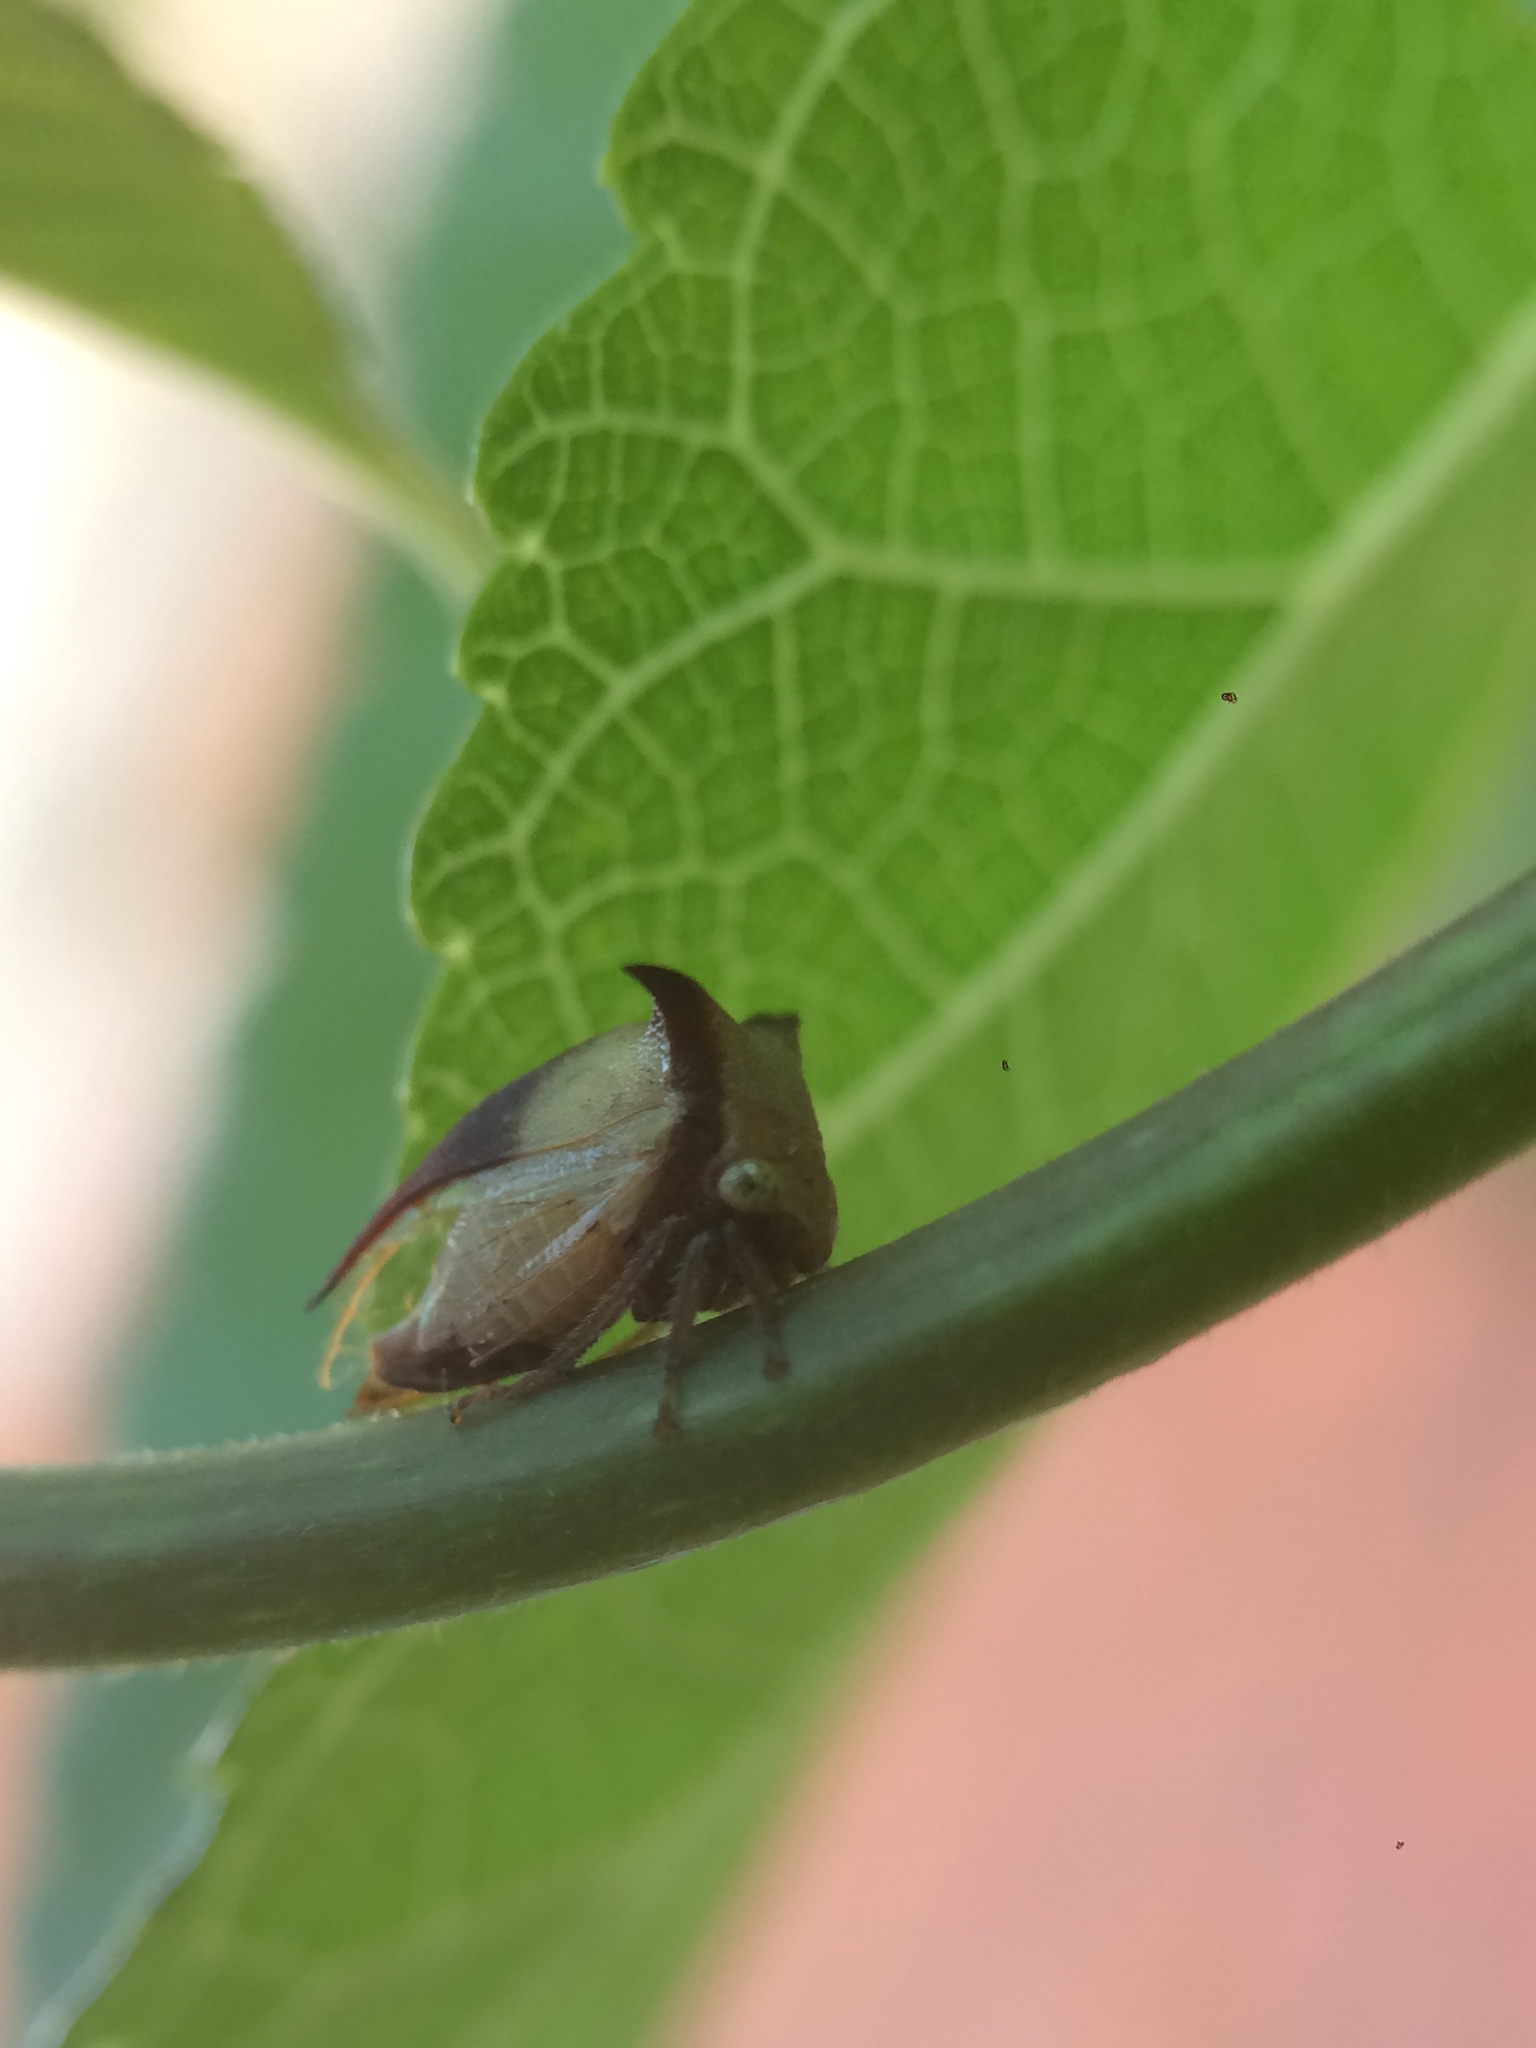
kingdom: Animalia
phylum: Arthropoda
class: Insecta
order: Hemiptera
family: Membracidae
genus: Ceresa
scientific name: Ceresa ustulata
